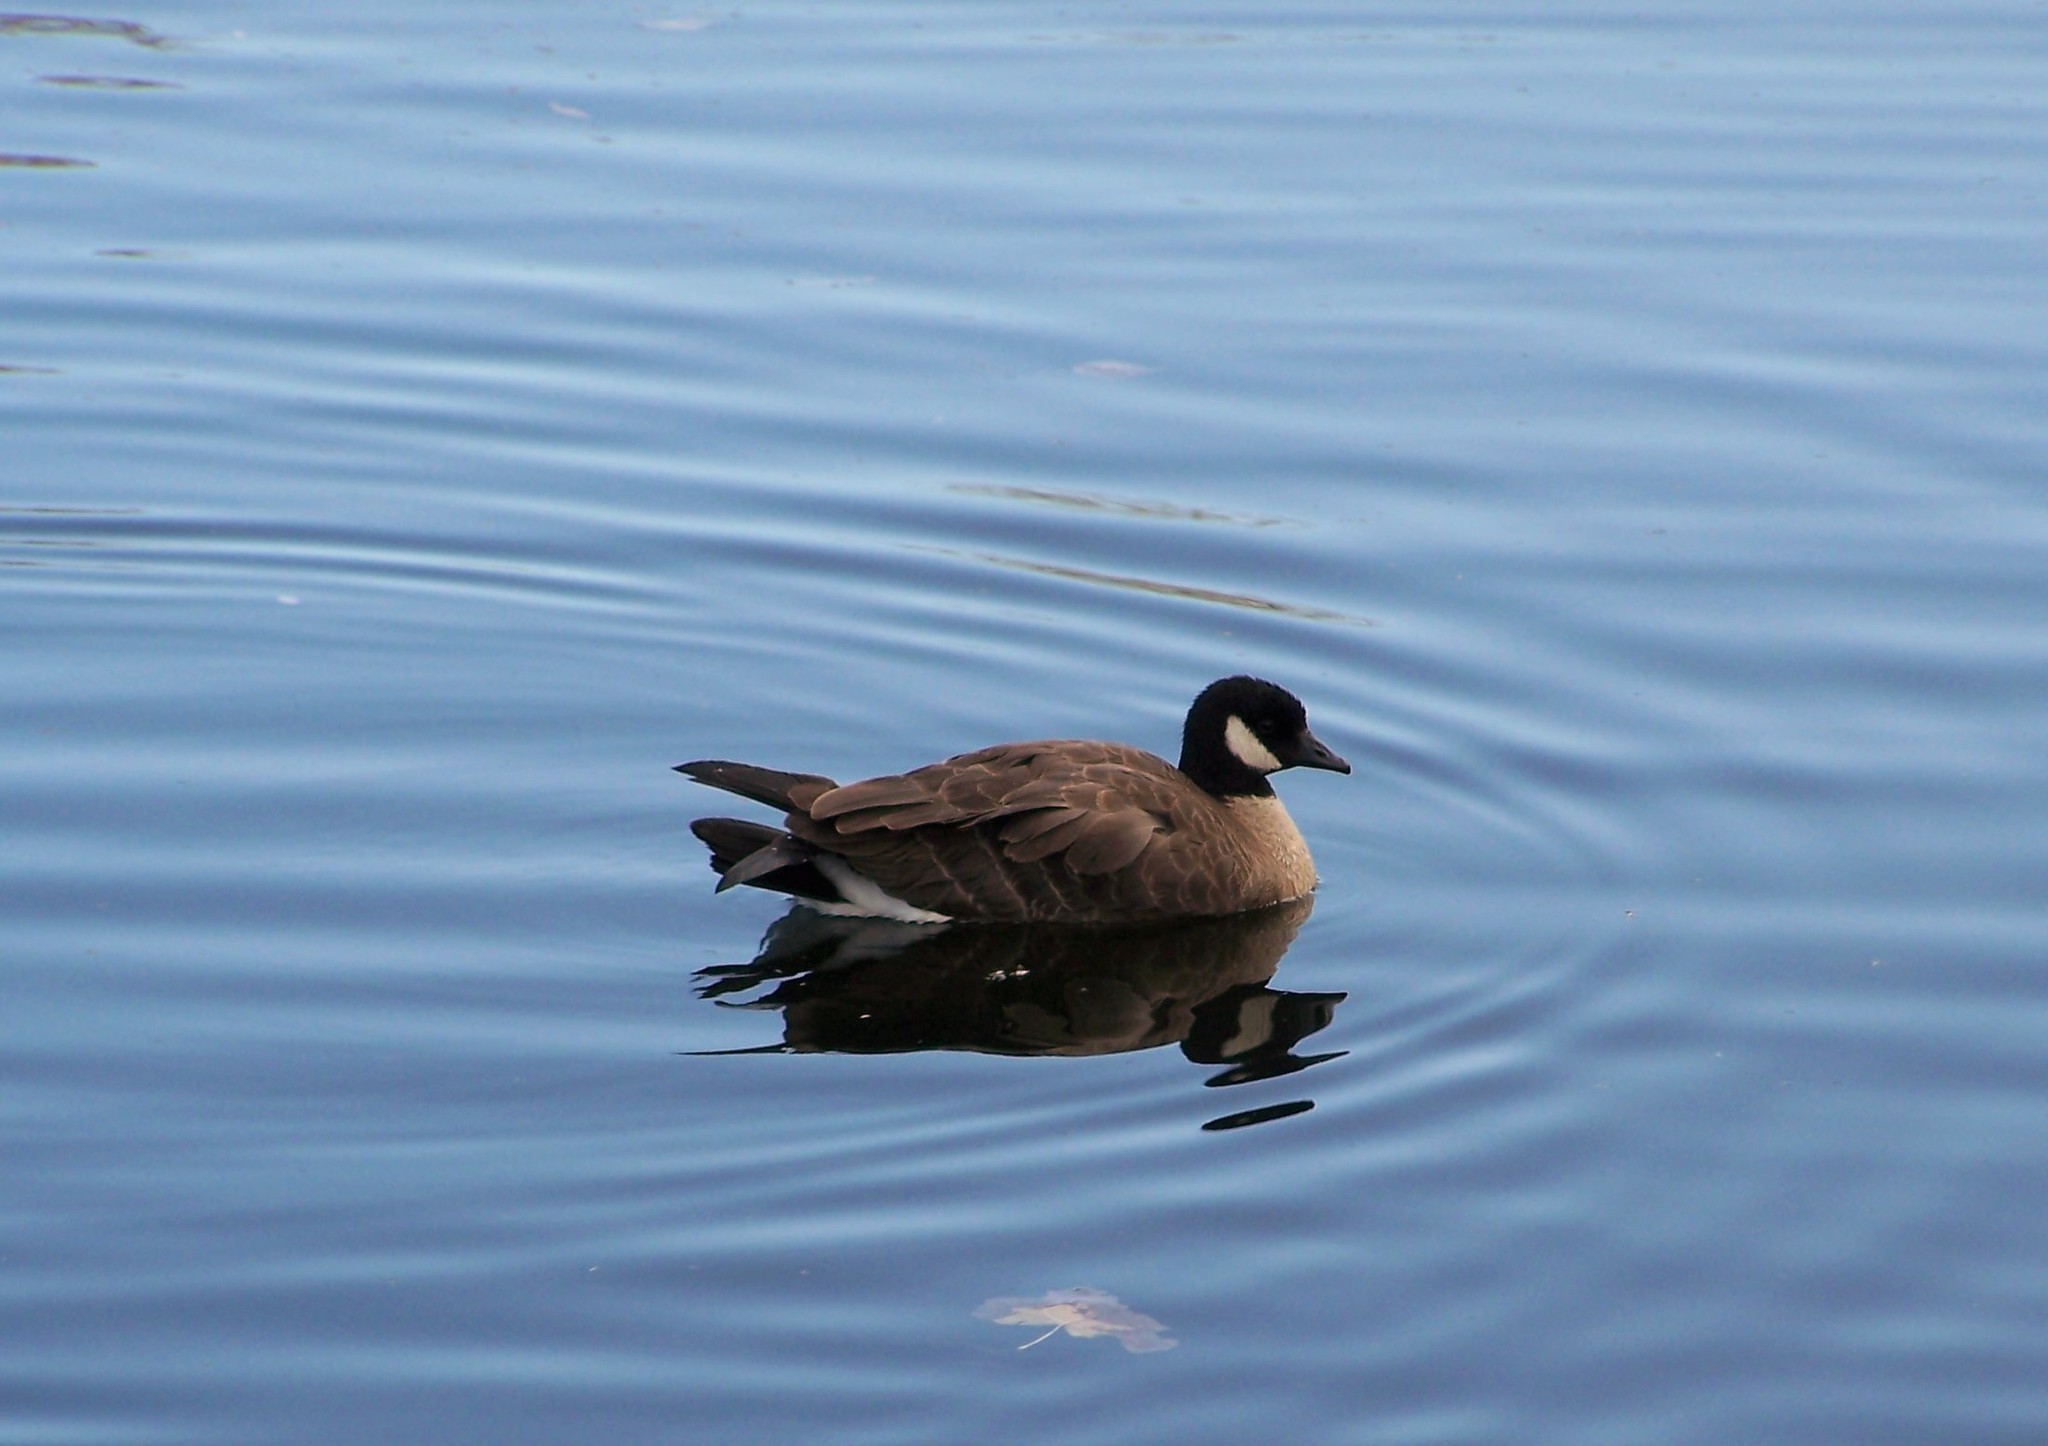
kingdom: Animalia
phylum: Chordata
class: Aves
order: Anseriformes
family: Anatidae
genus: Branta
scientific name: Branta hutchinsii
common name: Cackling goose
